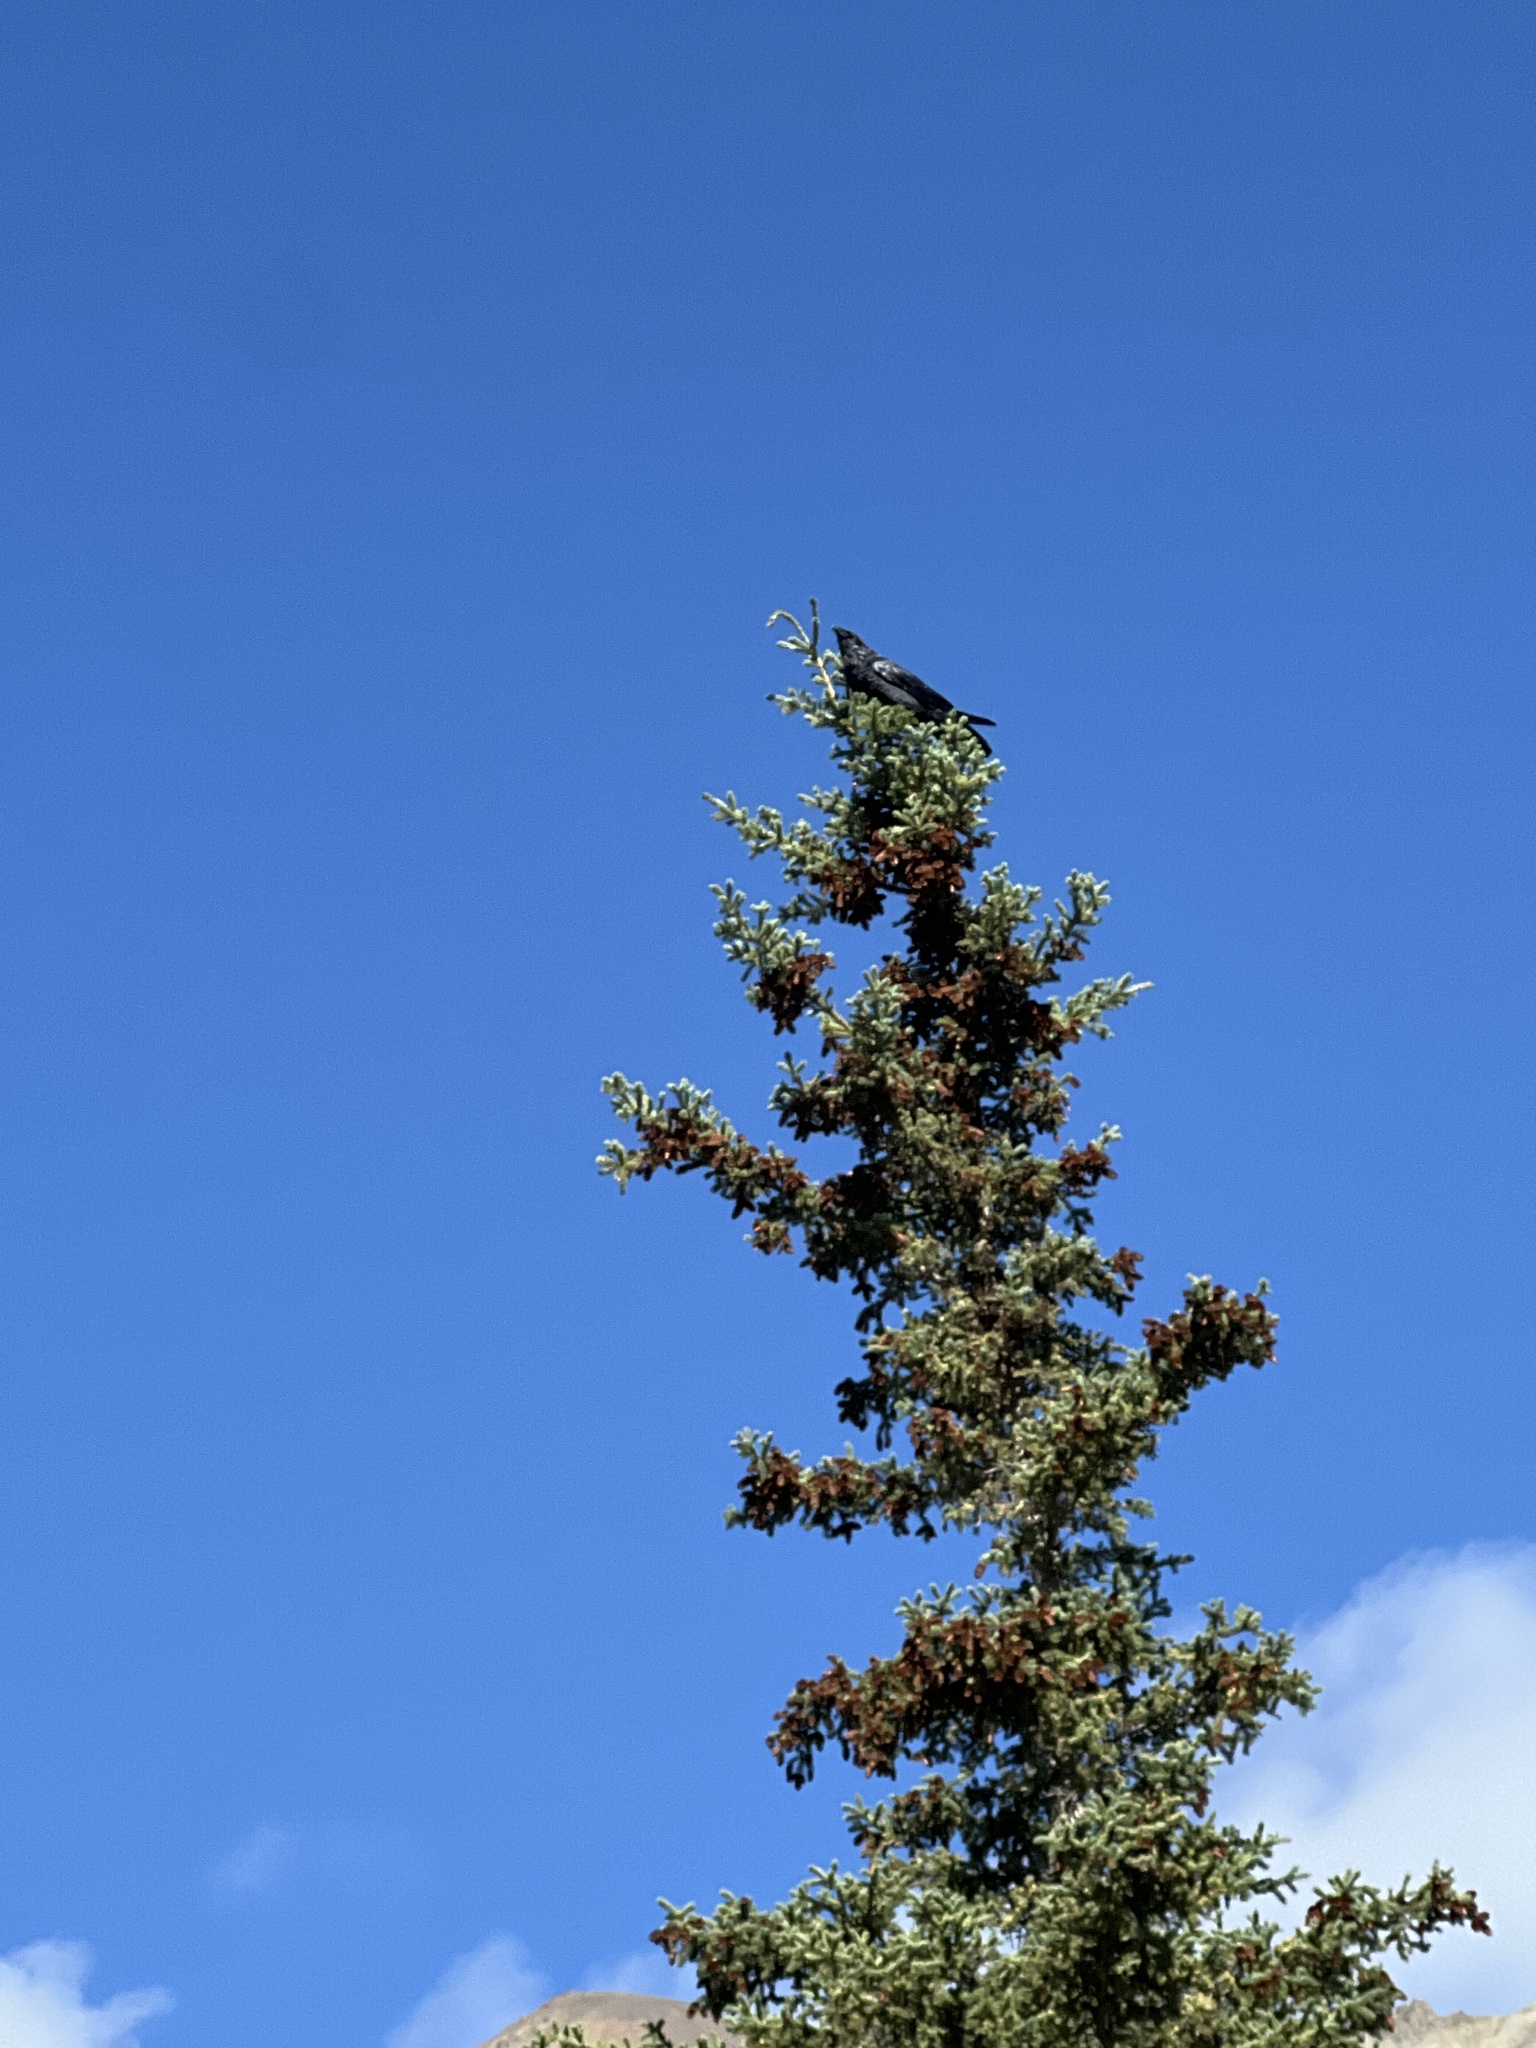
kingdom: Animalia
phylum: Chordata
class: Aves
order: Passeriformes
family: Corvidae
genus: Corvus
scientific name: Corvus corax
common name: Common raven
